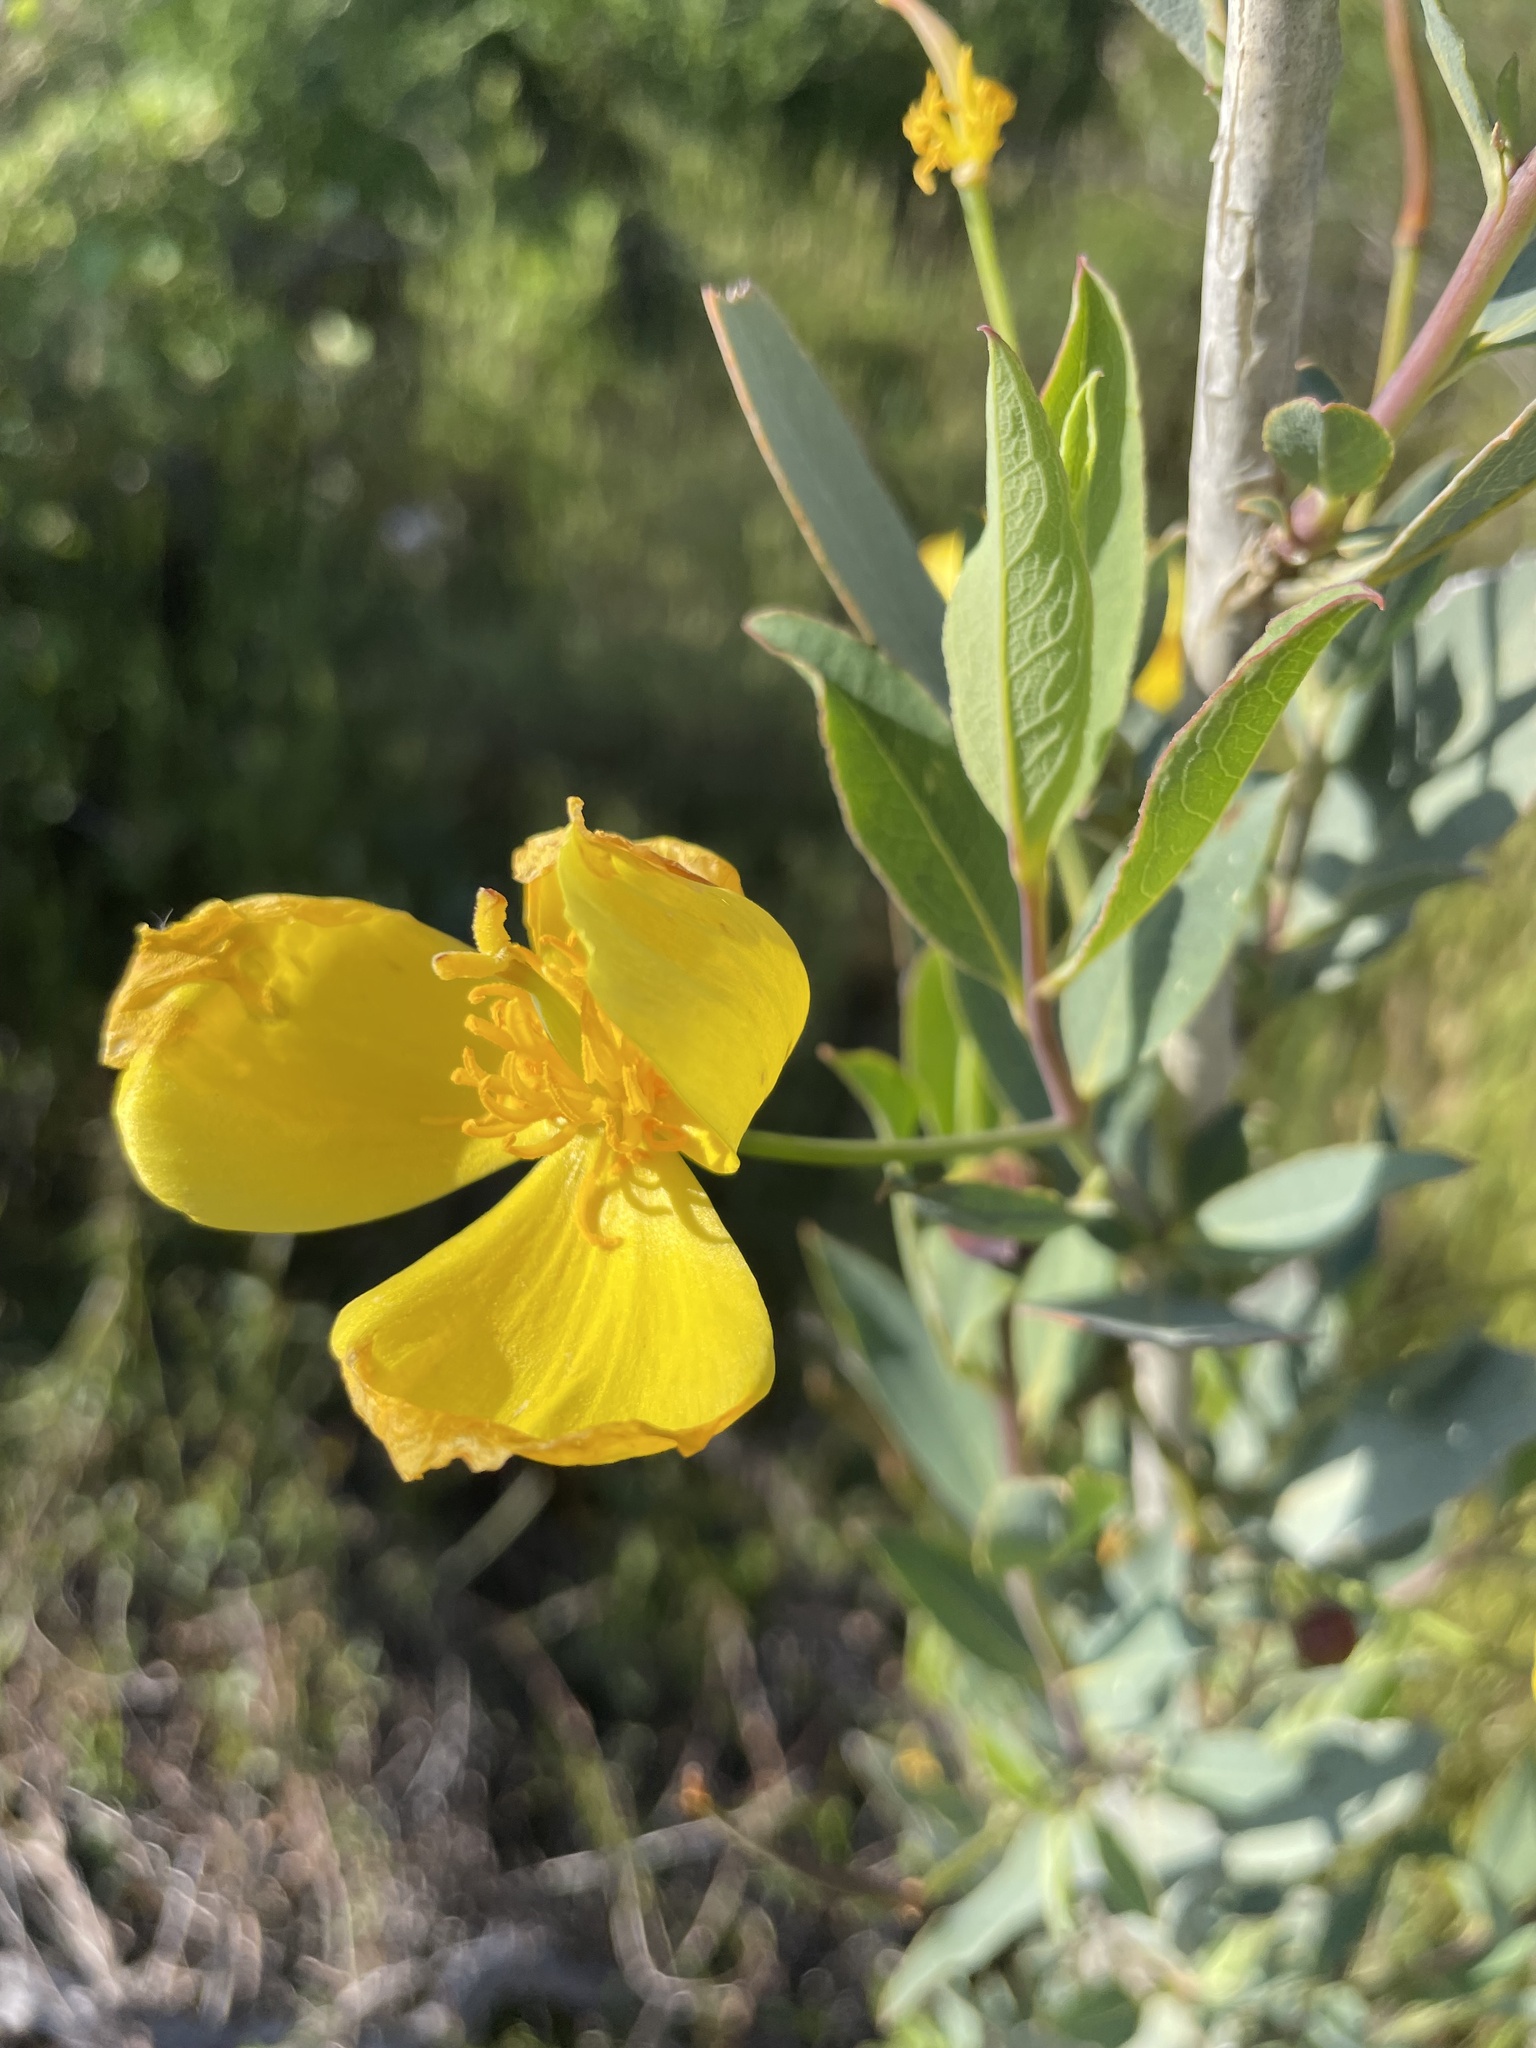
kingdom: Plantae
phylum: Tracheophyta
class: Magnoliopsida
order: Ranunculales
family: Papaveraceae
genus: Dendromecon
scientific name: Dendromecon rigida
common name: Tree poppy
